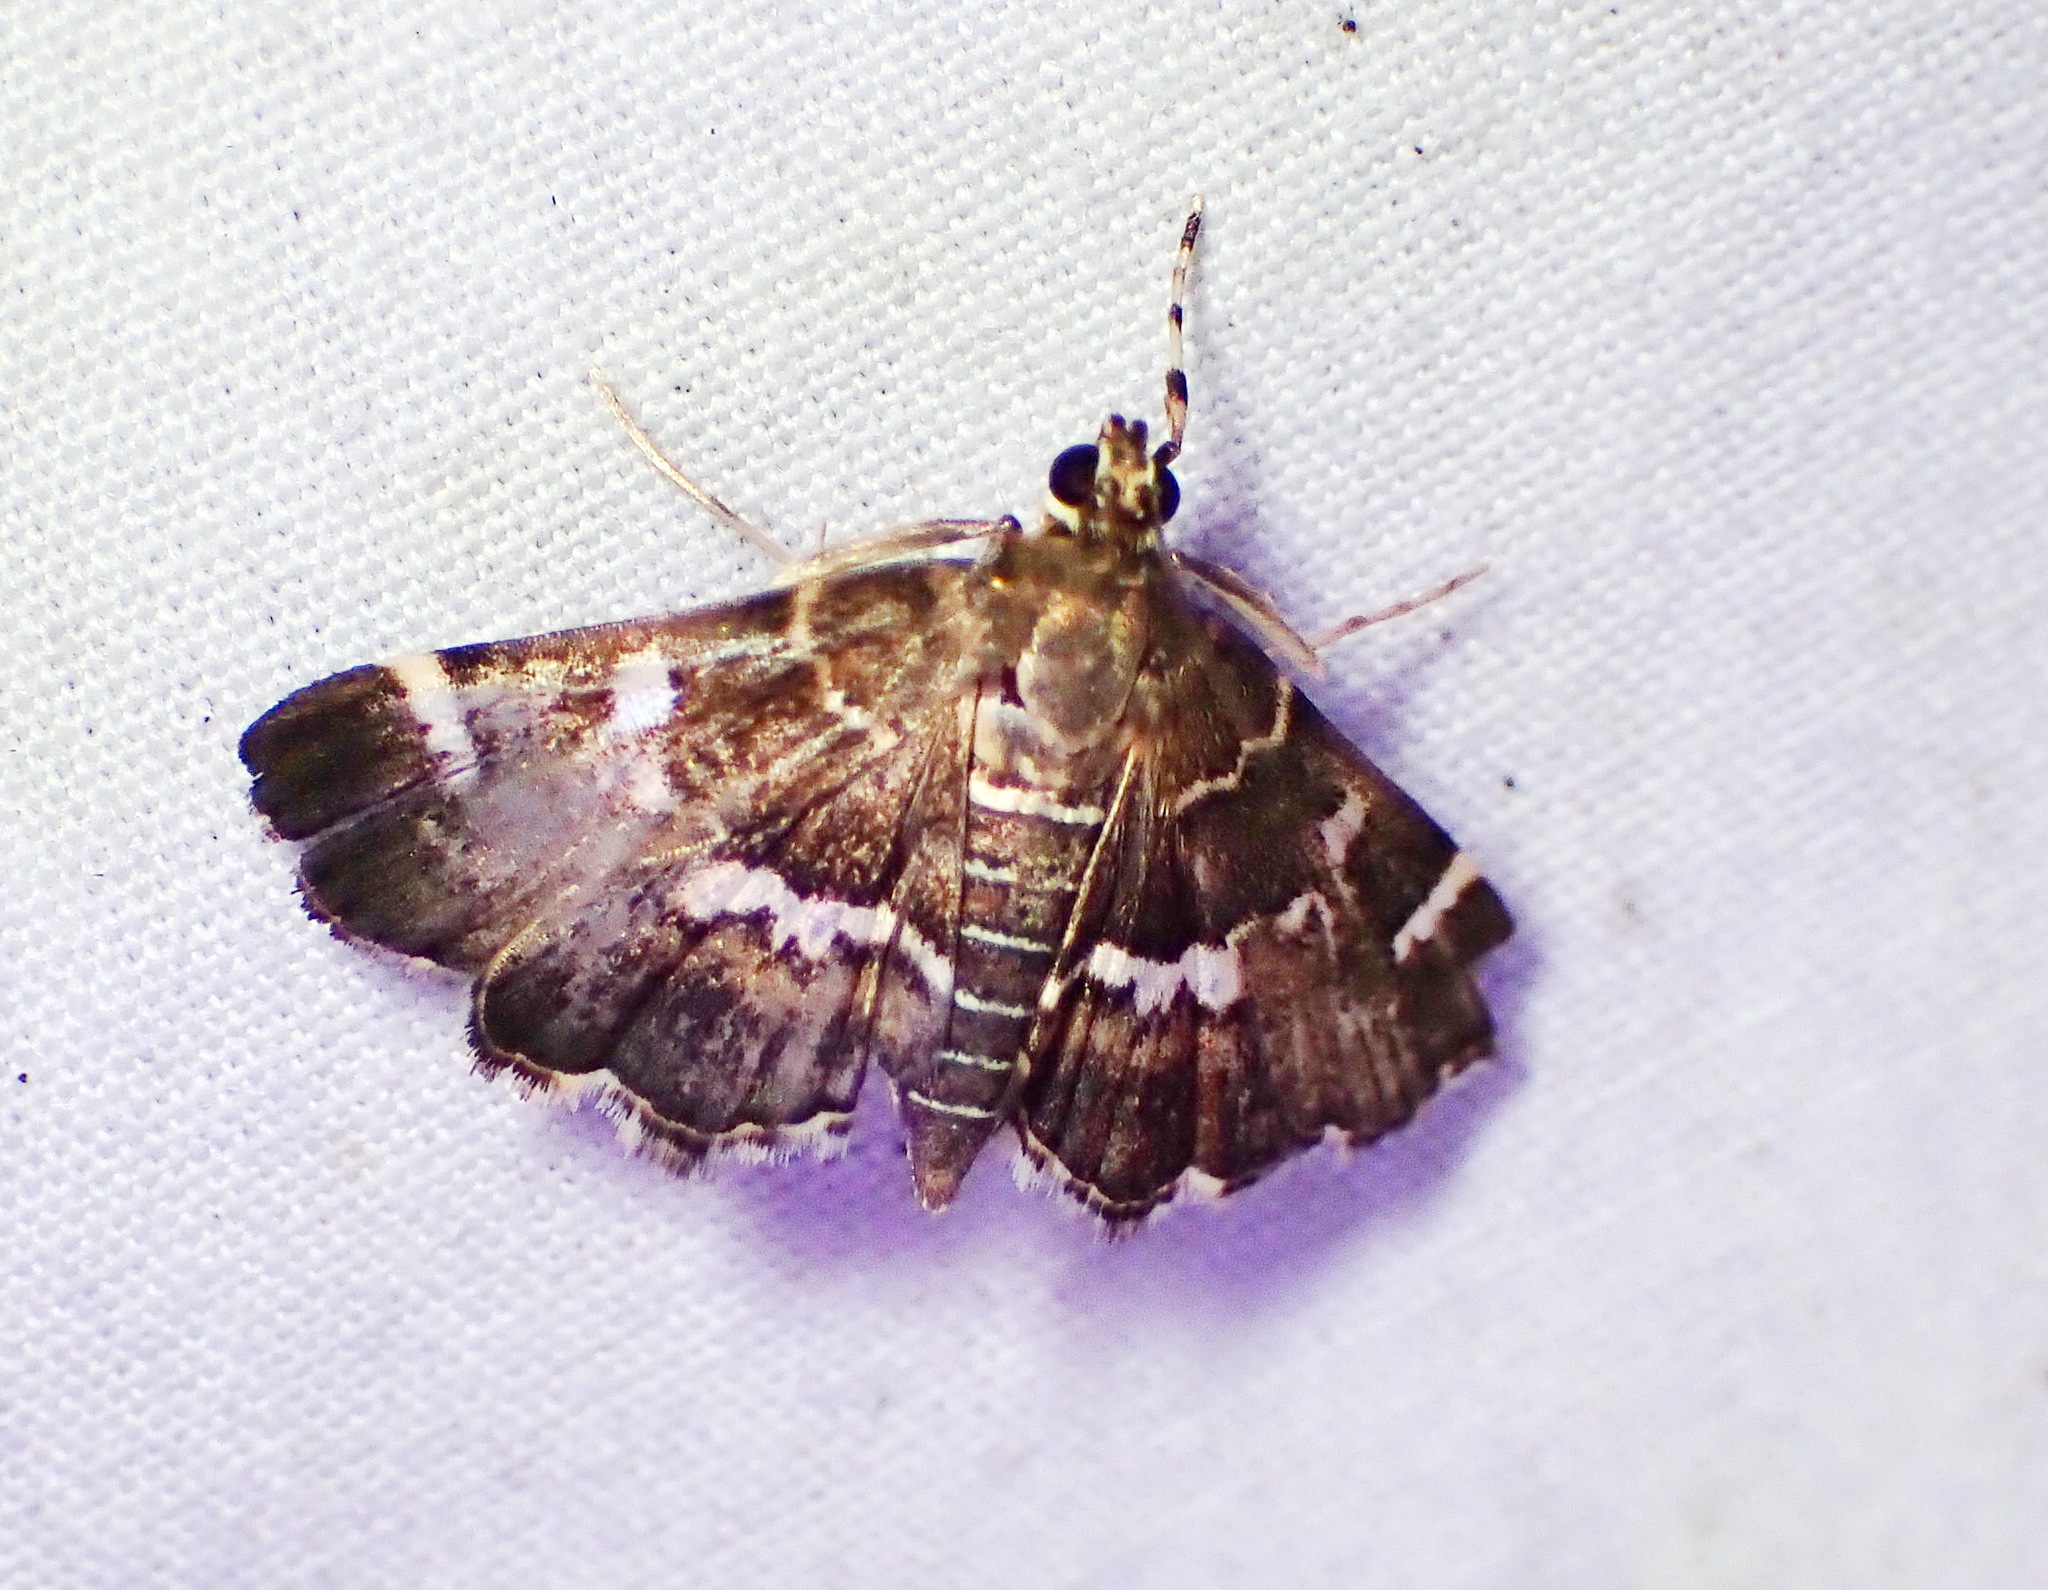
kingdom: Animalia
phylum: Arthropoda
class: Insecta
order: Lepidoptera
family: Crambidae
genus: Hymenia
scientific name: Hymenia perspectalis
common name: Spotted beet webworm
